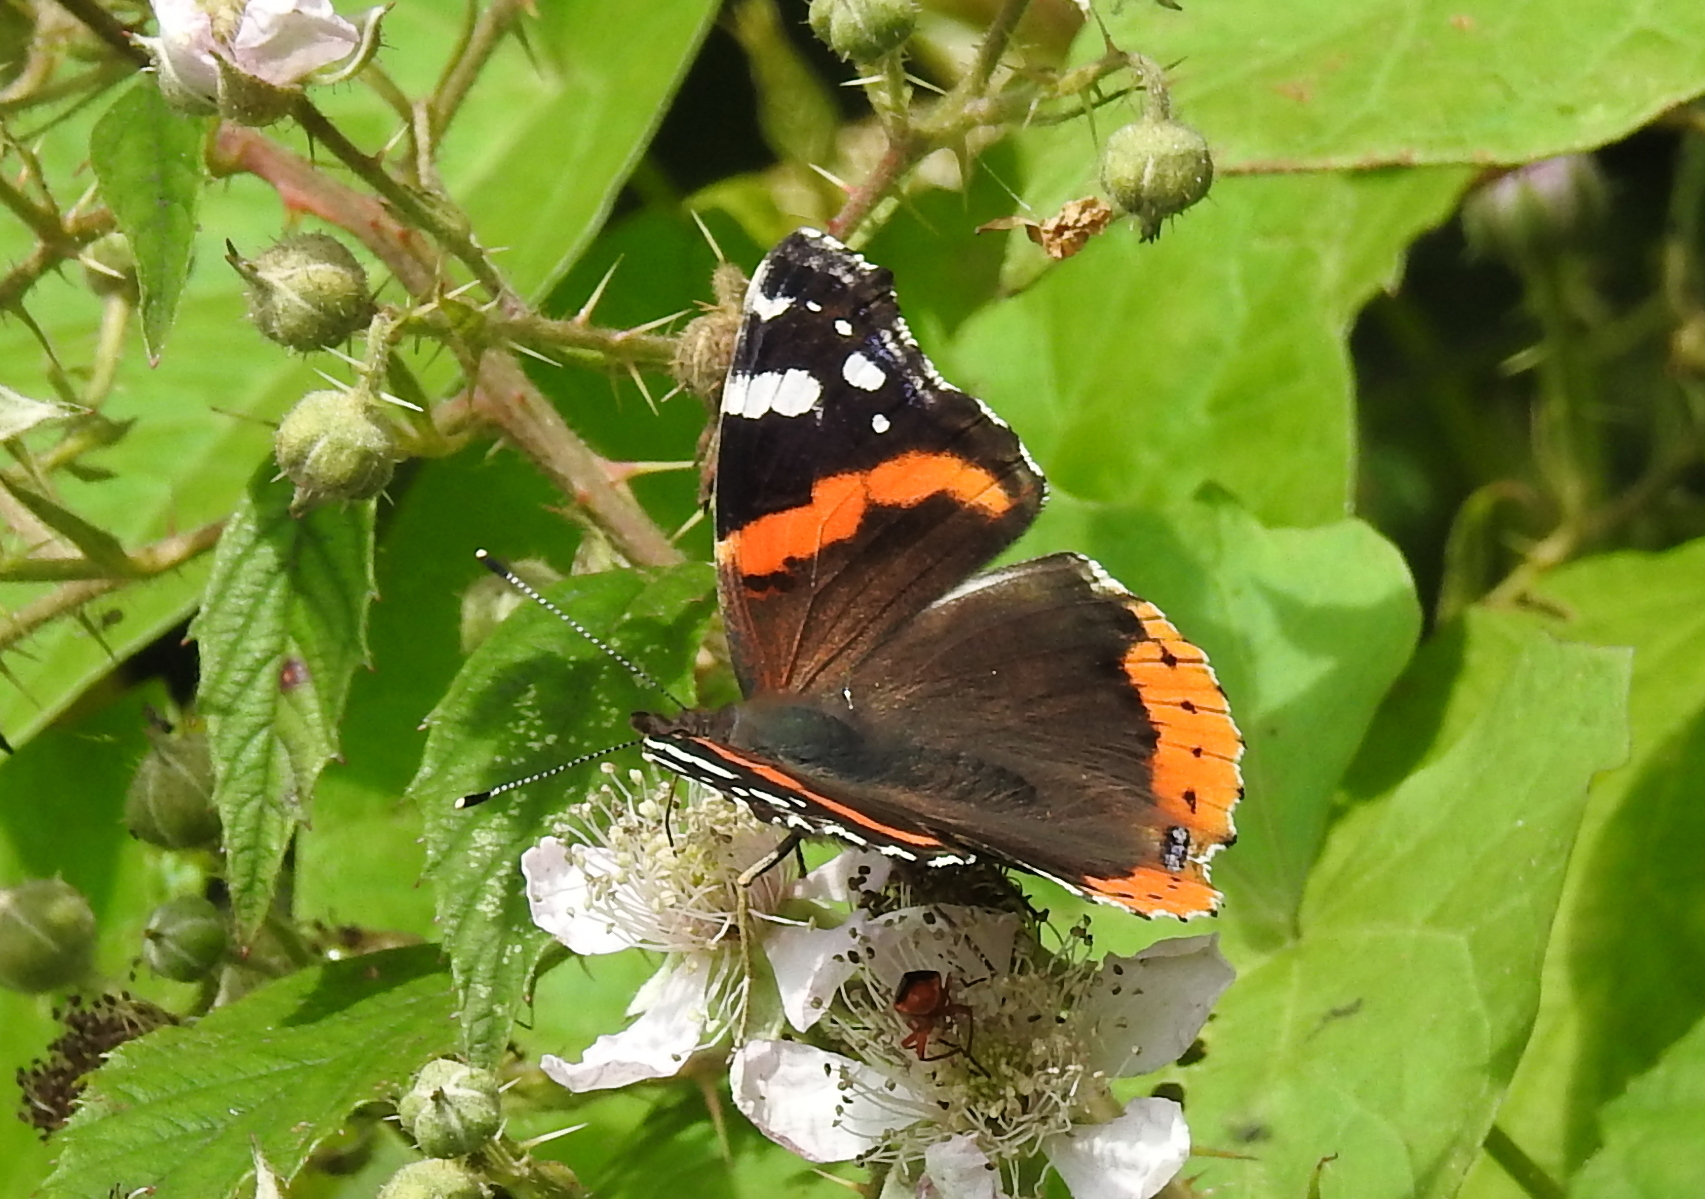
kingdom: Animalia
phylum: Arthropoda
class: Insecta
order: Lepidoptera
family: Nymphalidae
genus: Vanessa
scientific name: Vanessa atalanta
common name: Red admiral
